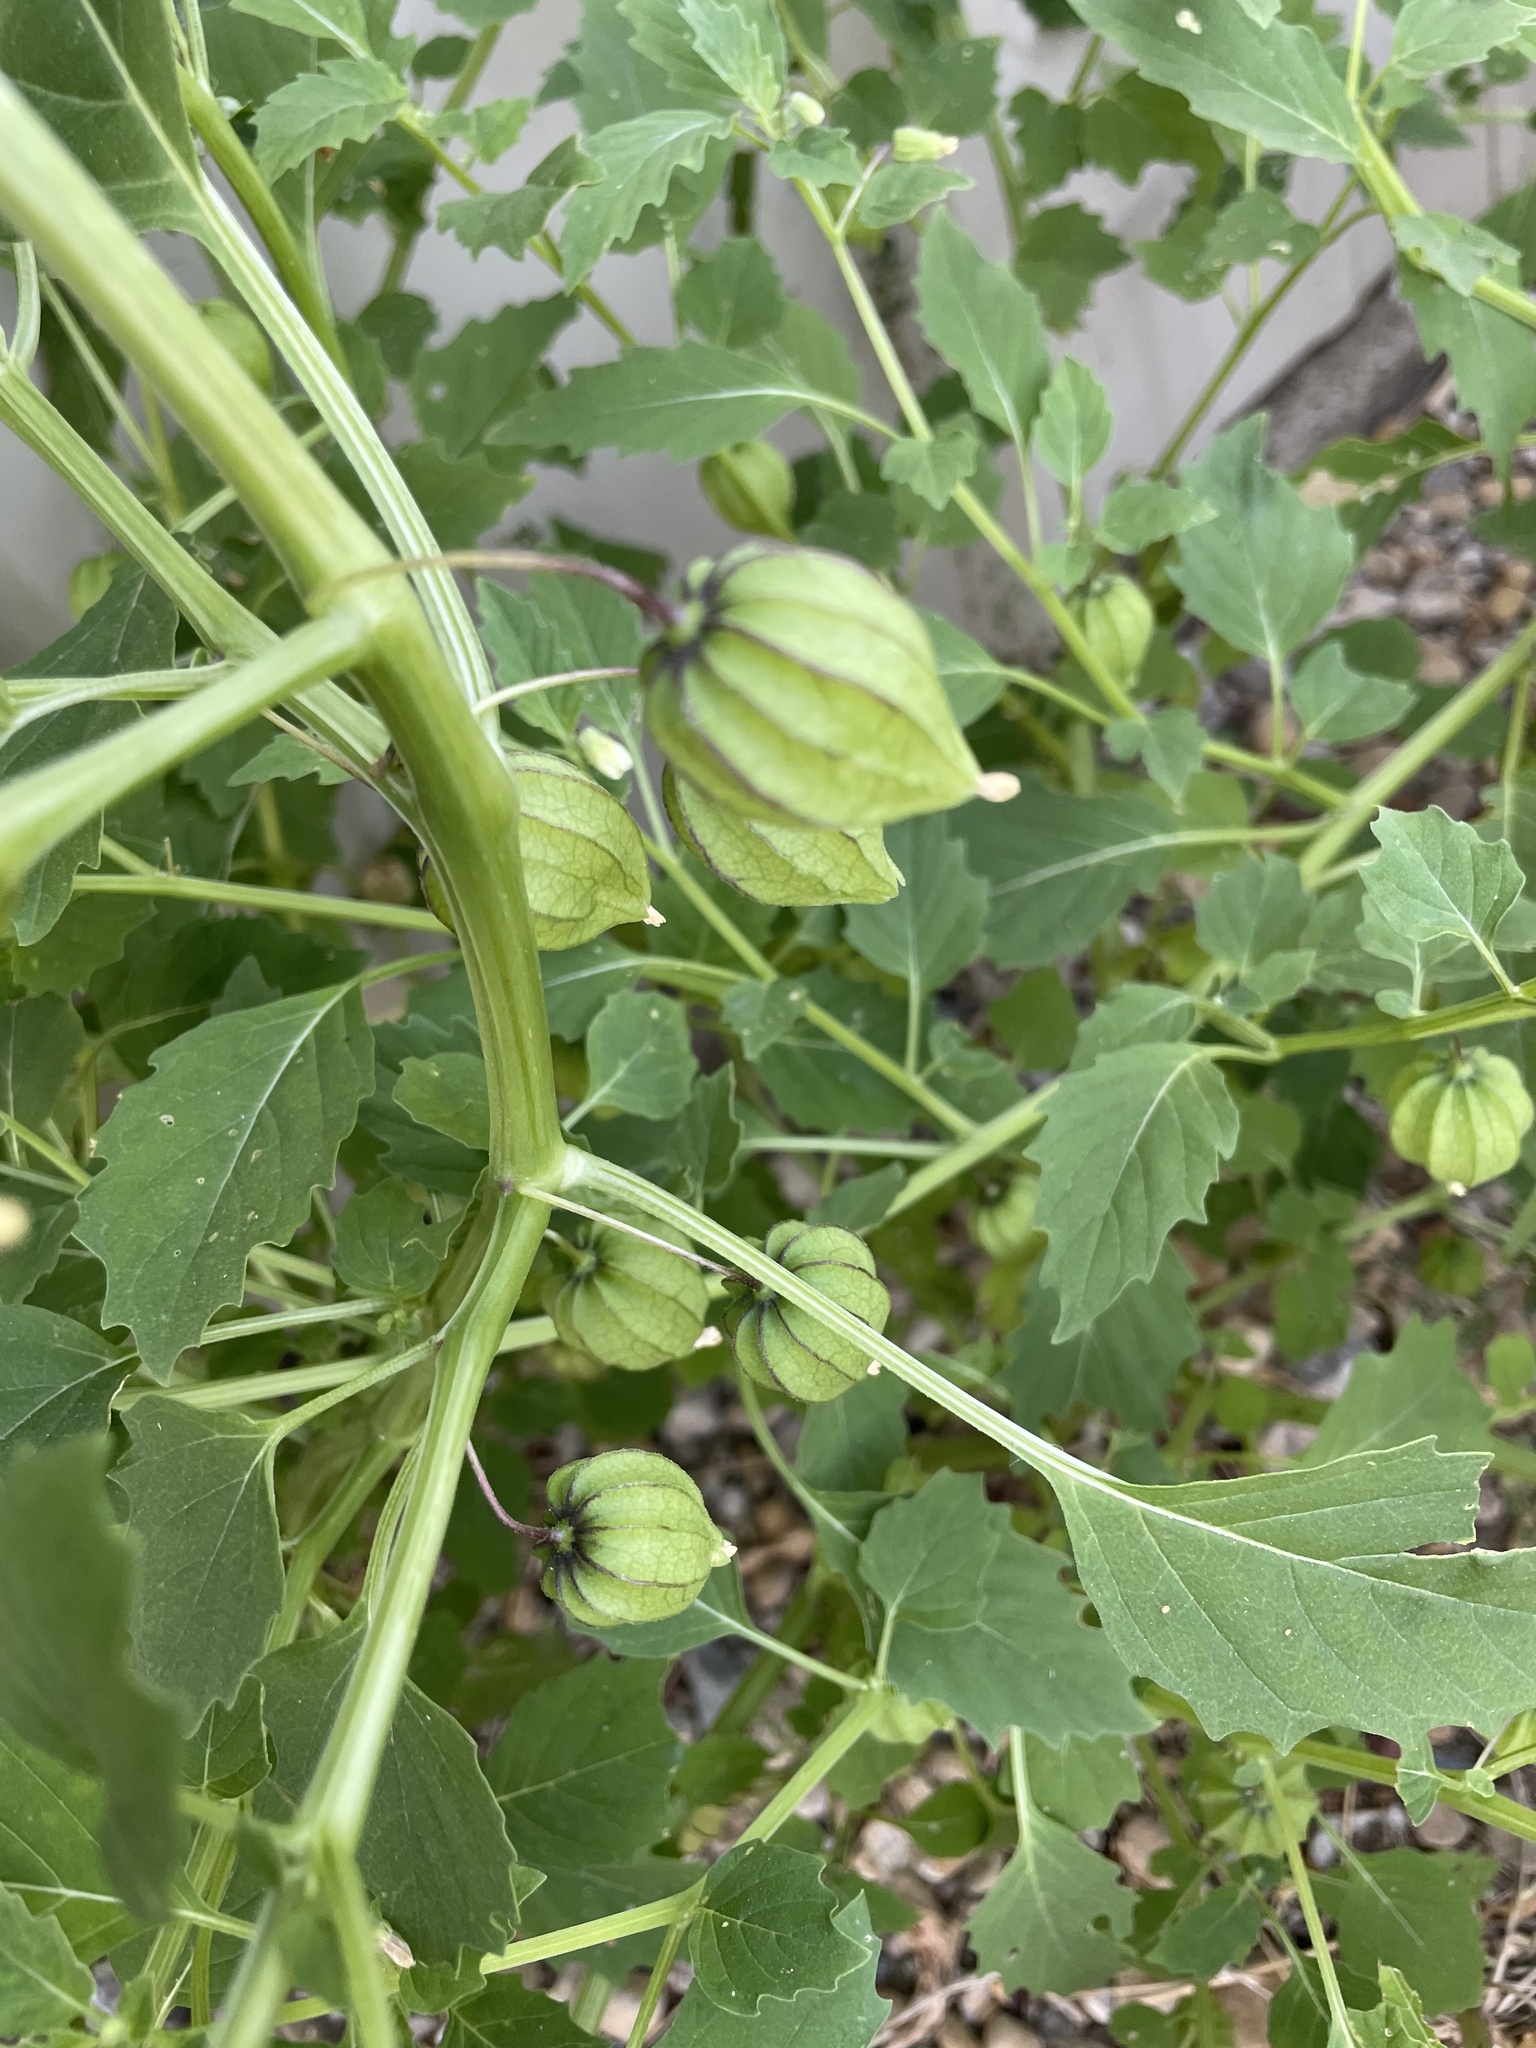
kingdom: Plantae
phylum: Tracheophyta
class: Magnoliopsida
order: Solanales
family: Solanaceae
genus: Physalis
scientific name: Physalis angulata
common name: Angular winter-cherry
